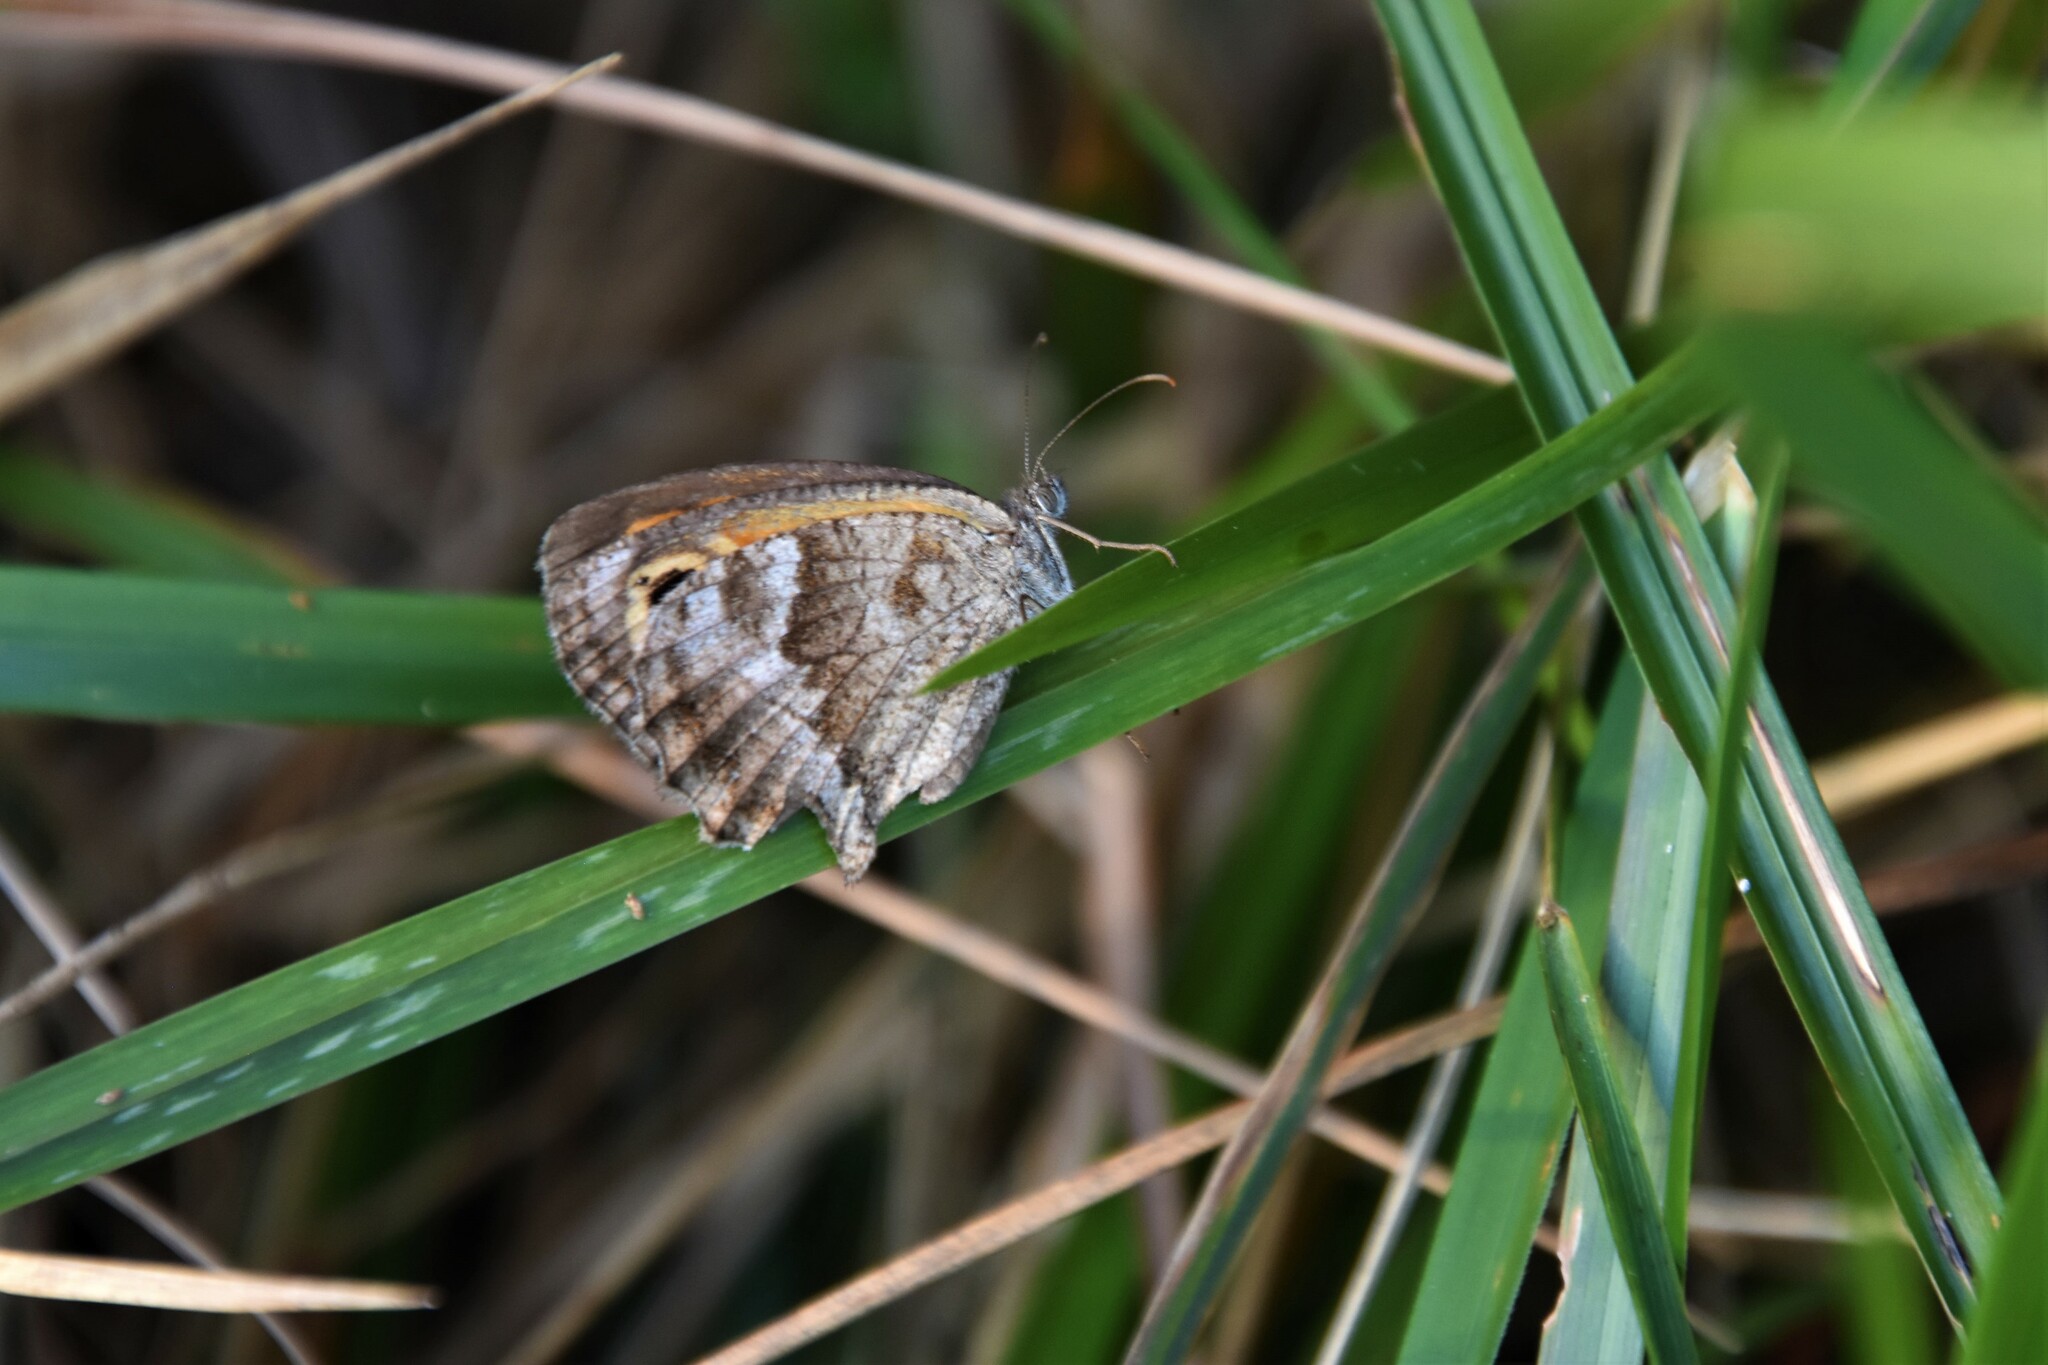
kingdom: Animalia
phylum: Arthropoda
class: Insecta
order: Lepidoptera
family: Nymphalidae
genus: Pyronia
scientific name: Pyronia cecilia
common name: Southern gatekeeper
